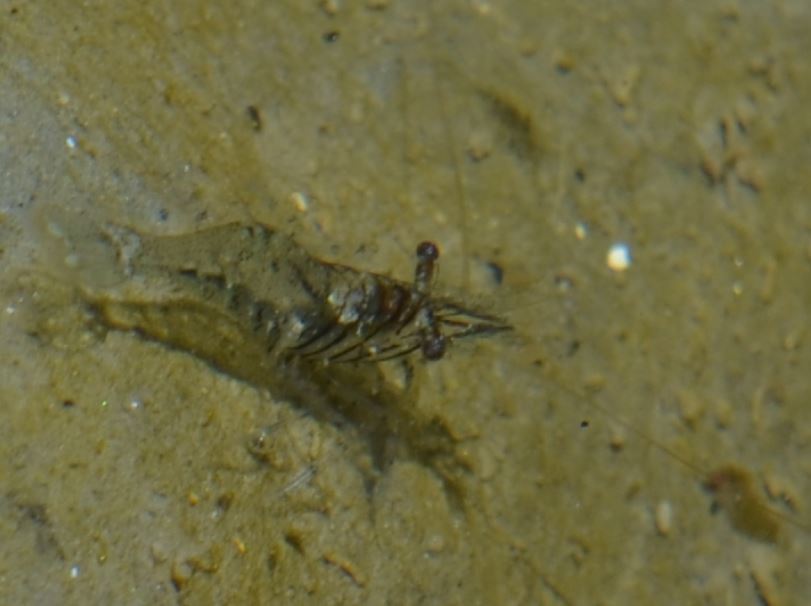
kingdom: Animalia
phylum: Arthropoda
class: Malacostraca
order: Decapoda
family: Thoridae
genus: Heptacarpus
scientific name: Heptacarpus sitchensis
